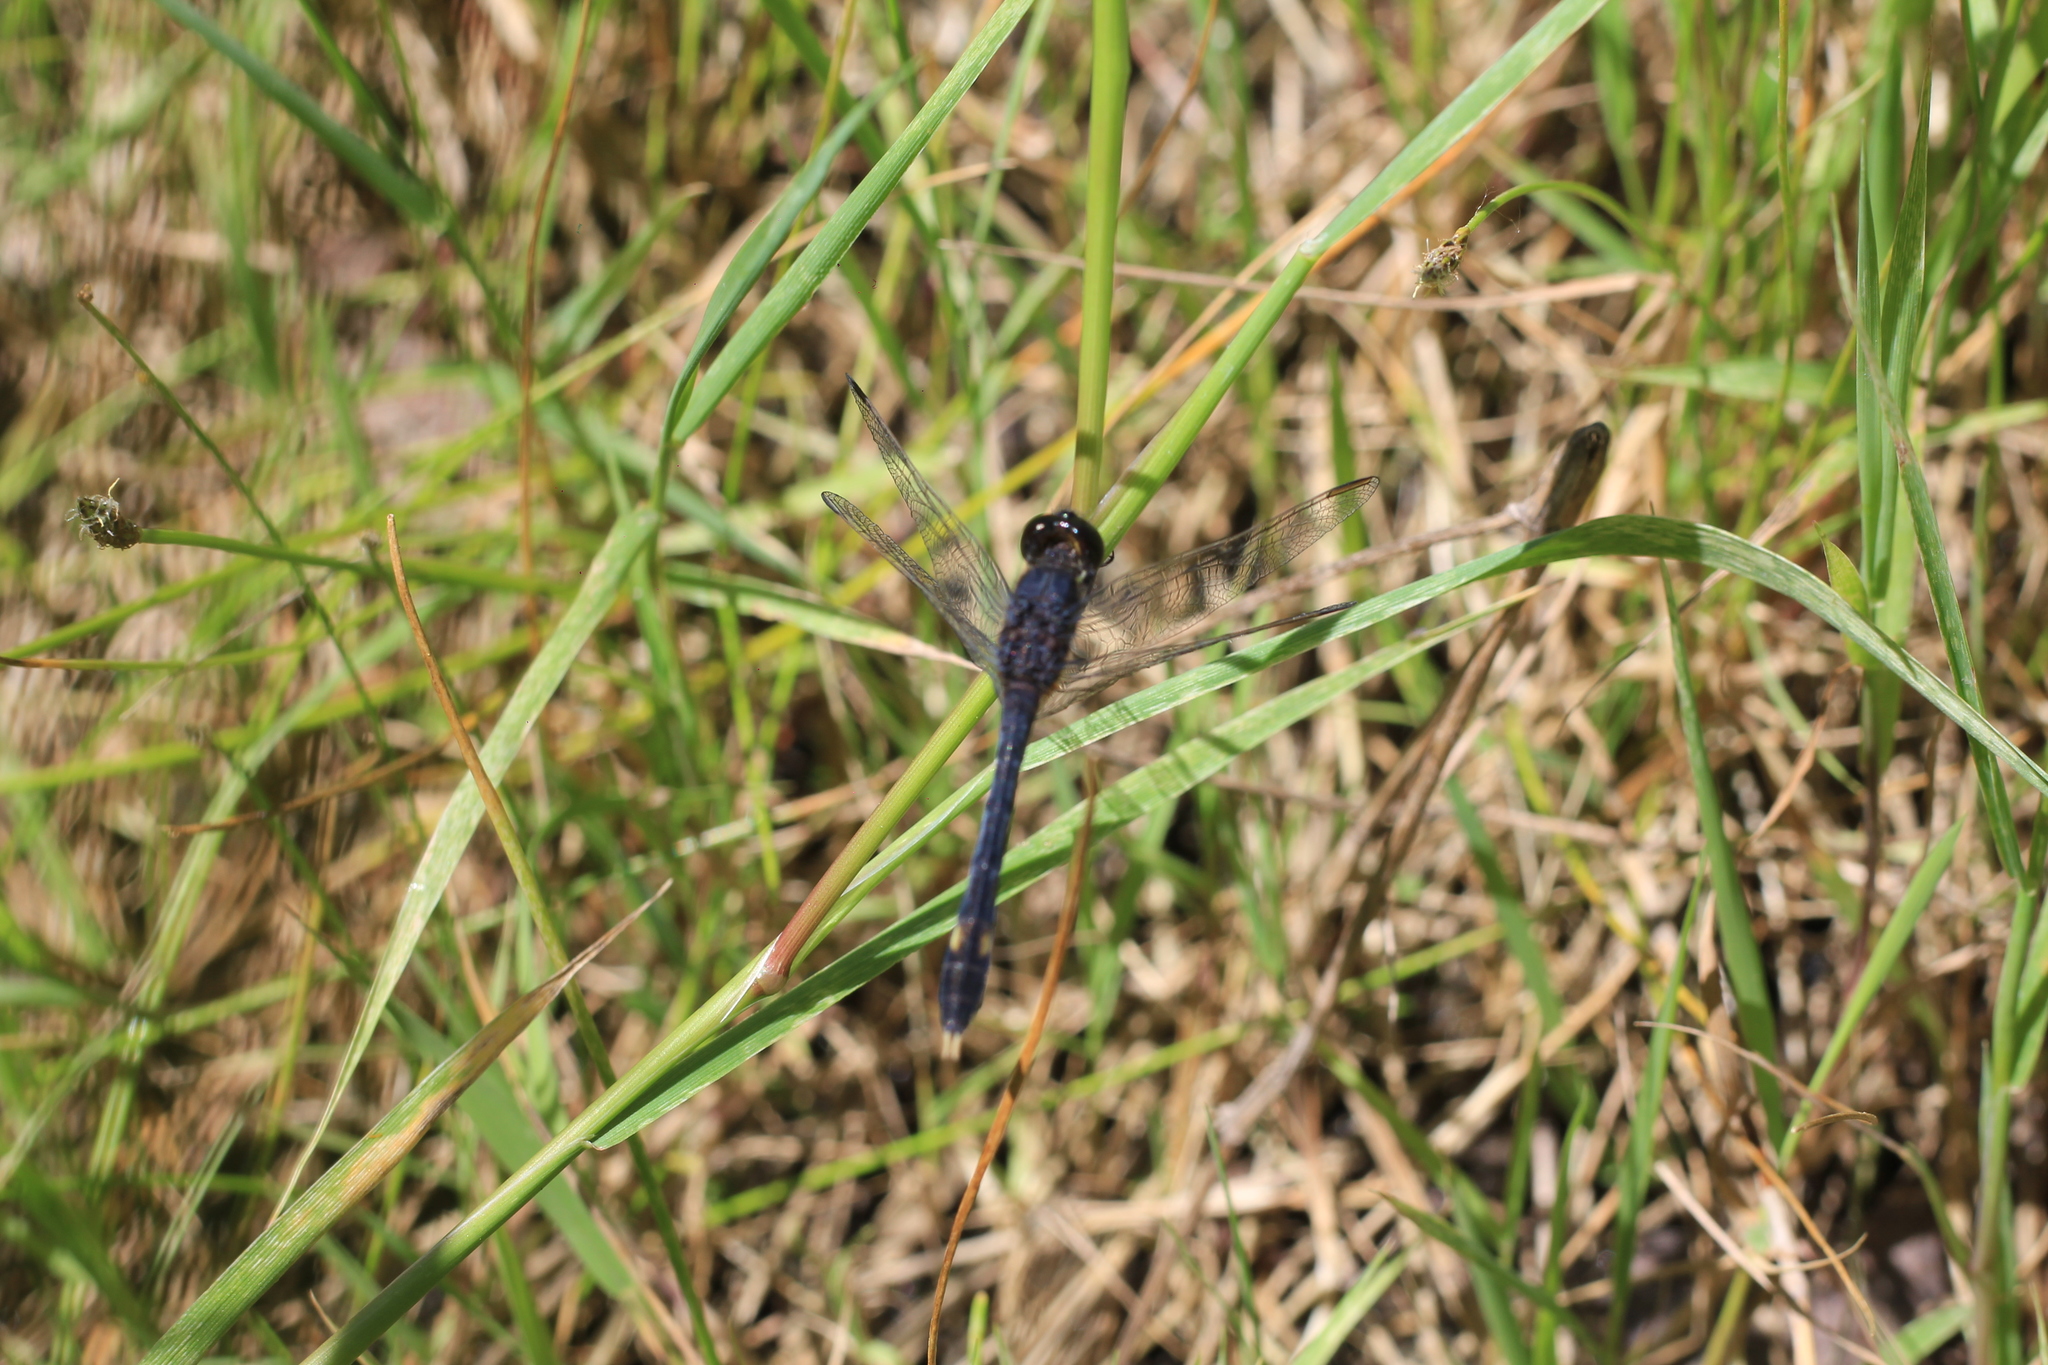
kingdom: Animalia
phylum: Arthropoda
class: Insecta
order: Odonata
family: Libellulidae
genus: Erythrodiplax
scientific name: Erythrodiplax nigricans
